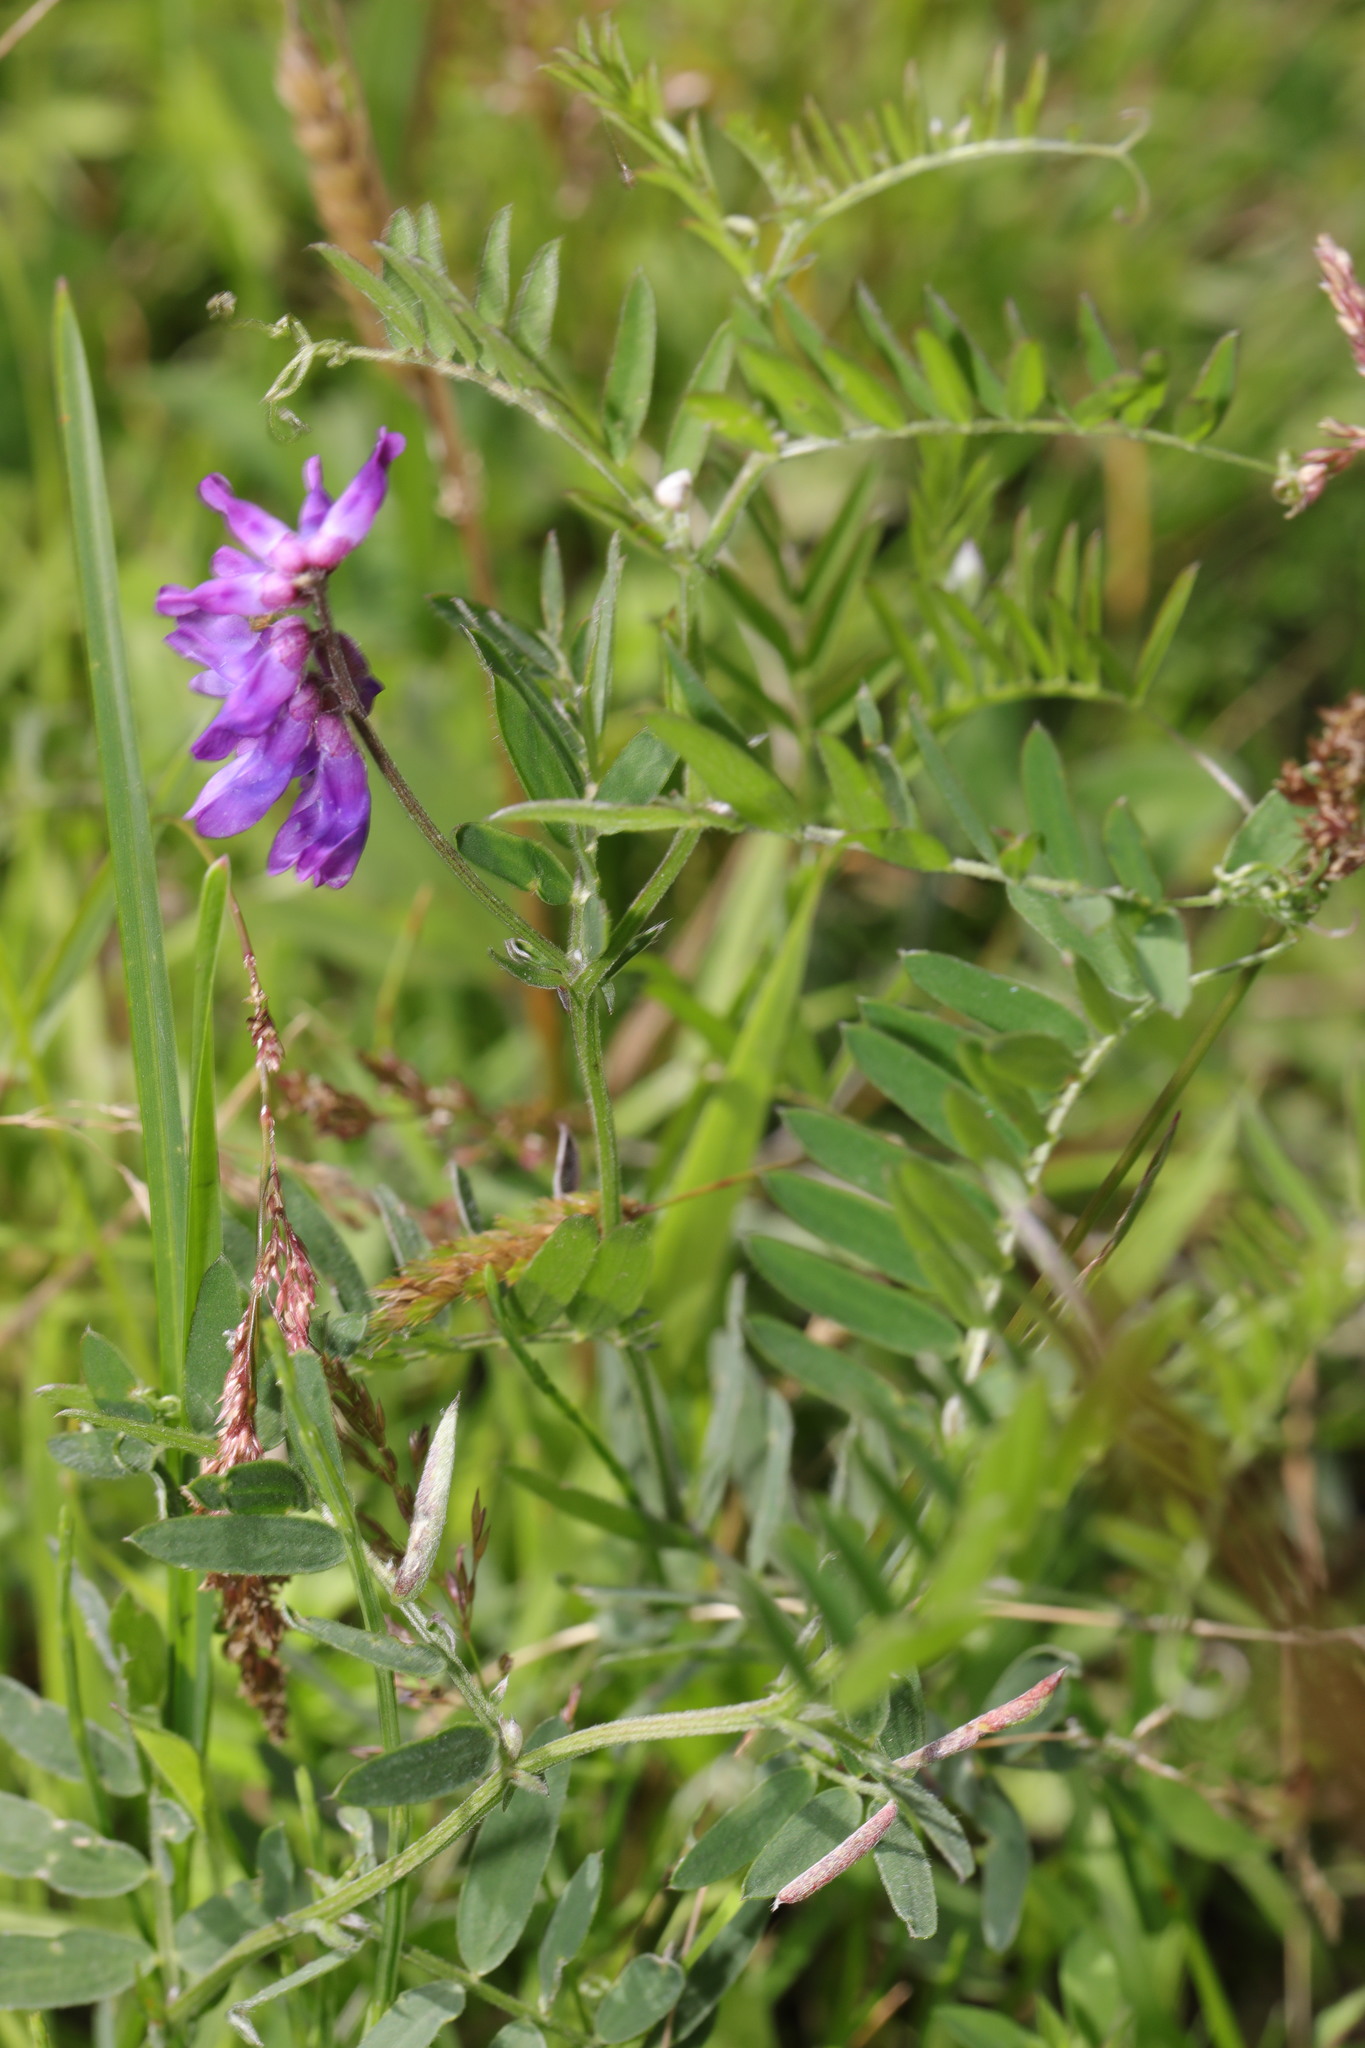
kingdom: Plantae
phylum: Tracheophyta
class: Magnoliopsida
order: Fabales
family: Fabaceae
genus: Vicia
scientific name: Vicia cracca
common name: Bird vetch
